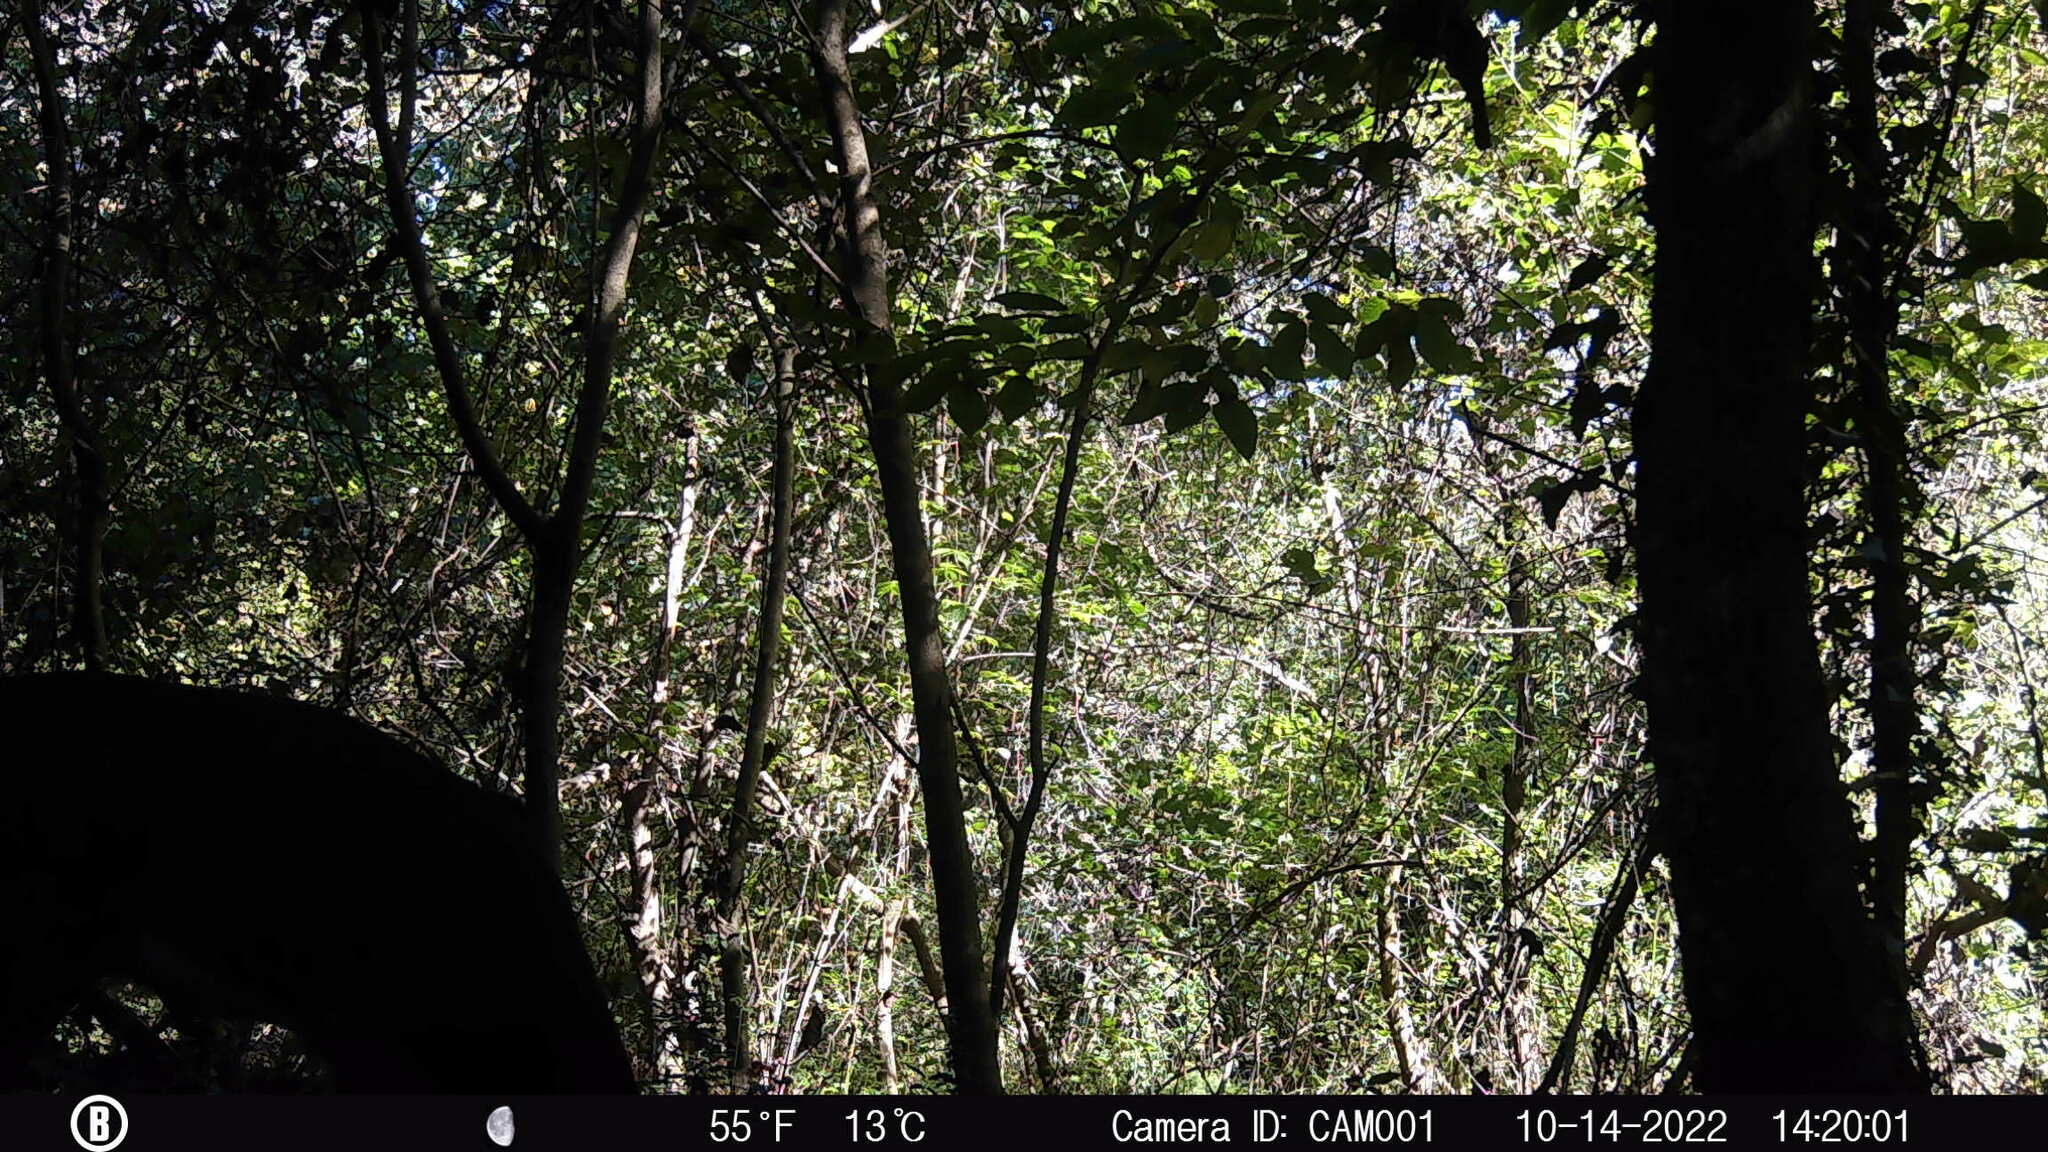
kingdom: Animalia
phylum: Chordata
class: Mammalia
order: Artiodactyla
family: Cervidae
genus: Odocoileus
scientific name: Odocoileus virginianus
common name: White-tailed deer
